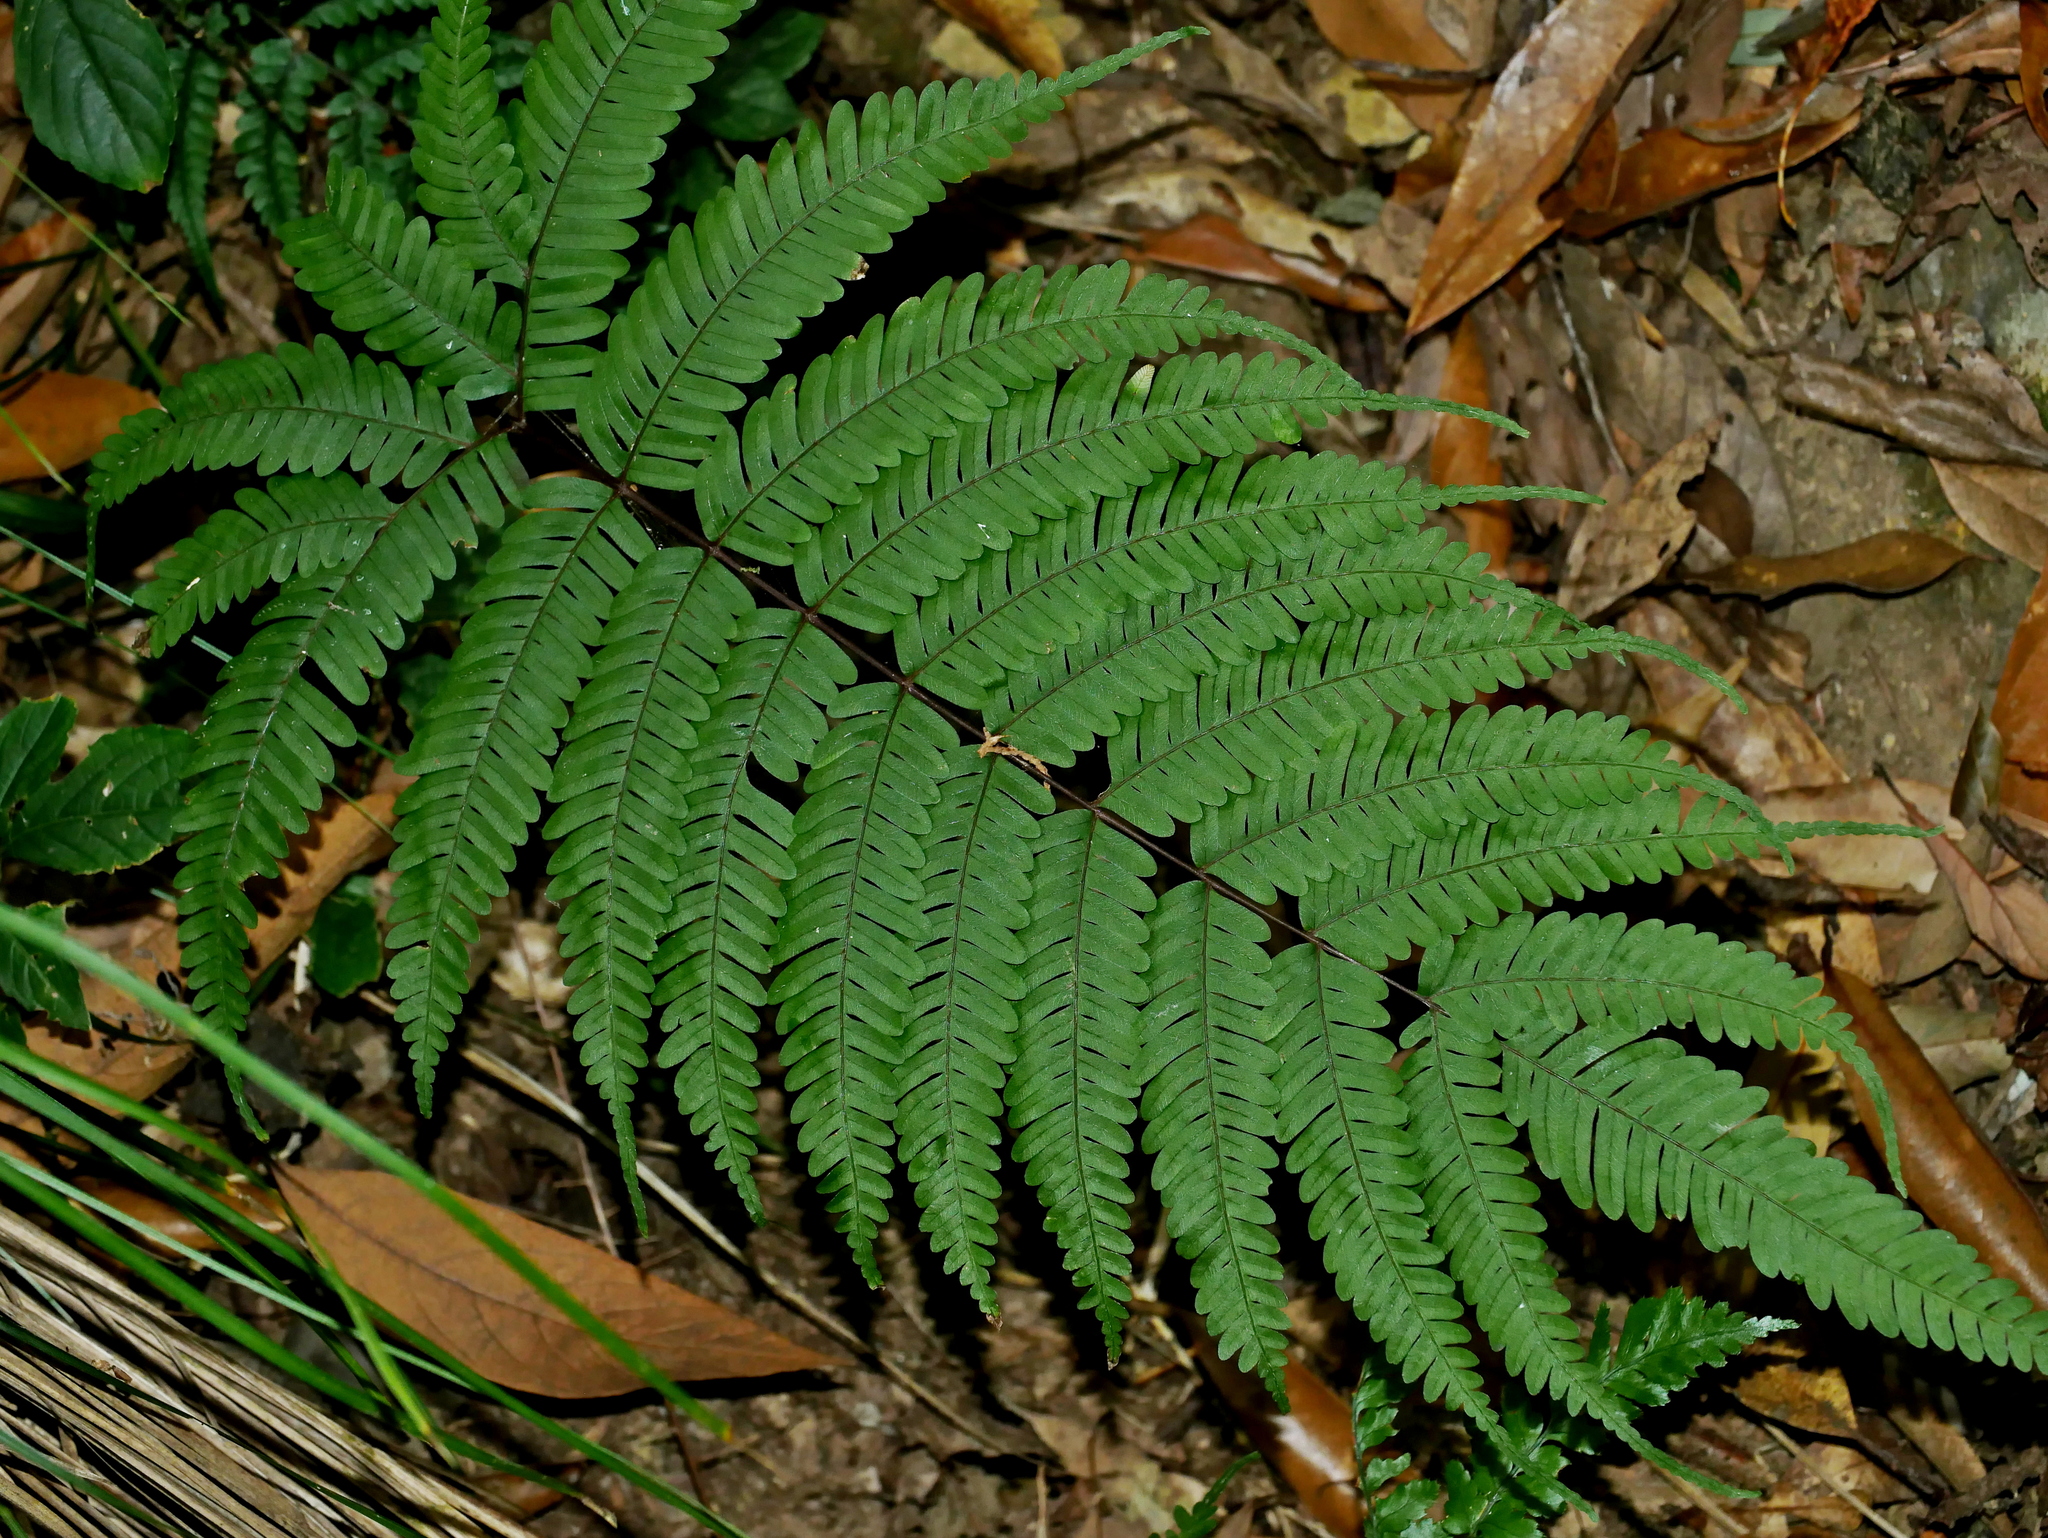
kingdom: Plantae
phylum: Tracheophyta
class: Polypodiopsida
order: Polypodiales
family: Pteridaceae
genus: Pteris
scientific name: Pteris setulosocostulata
